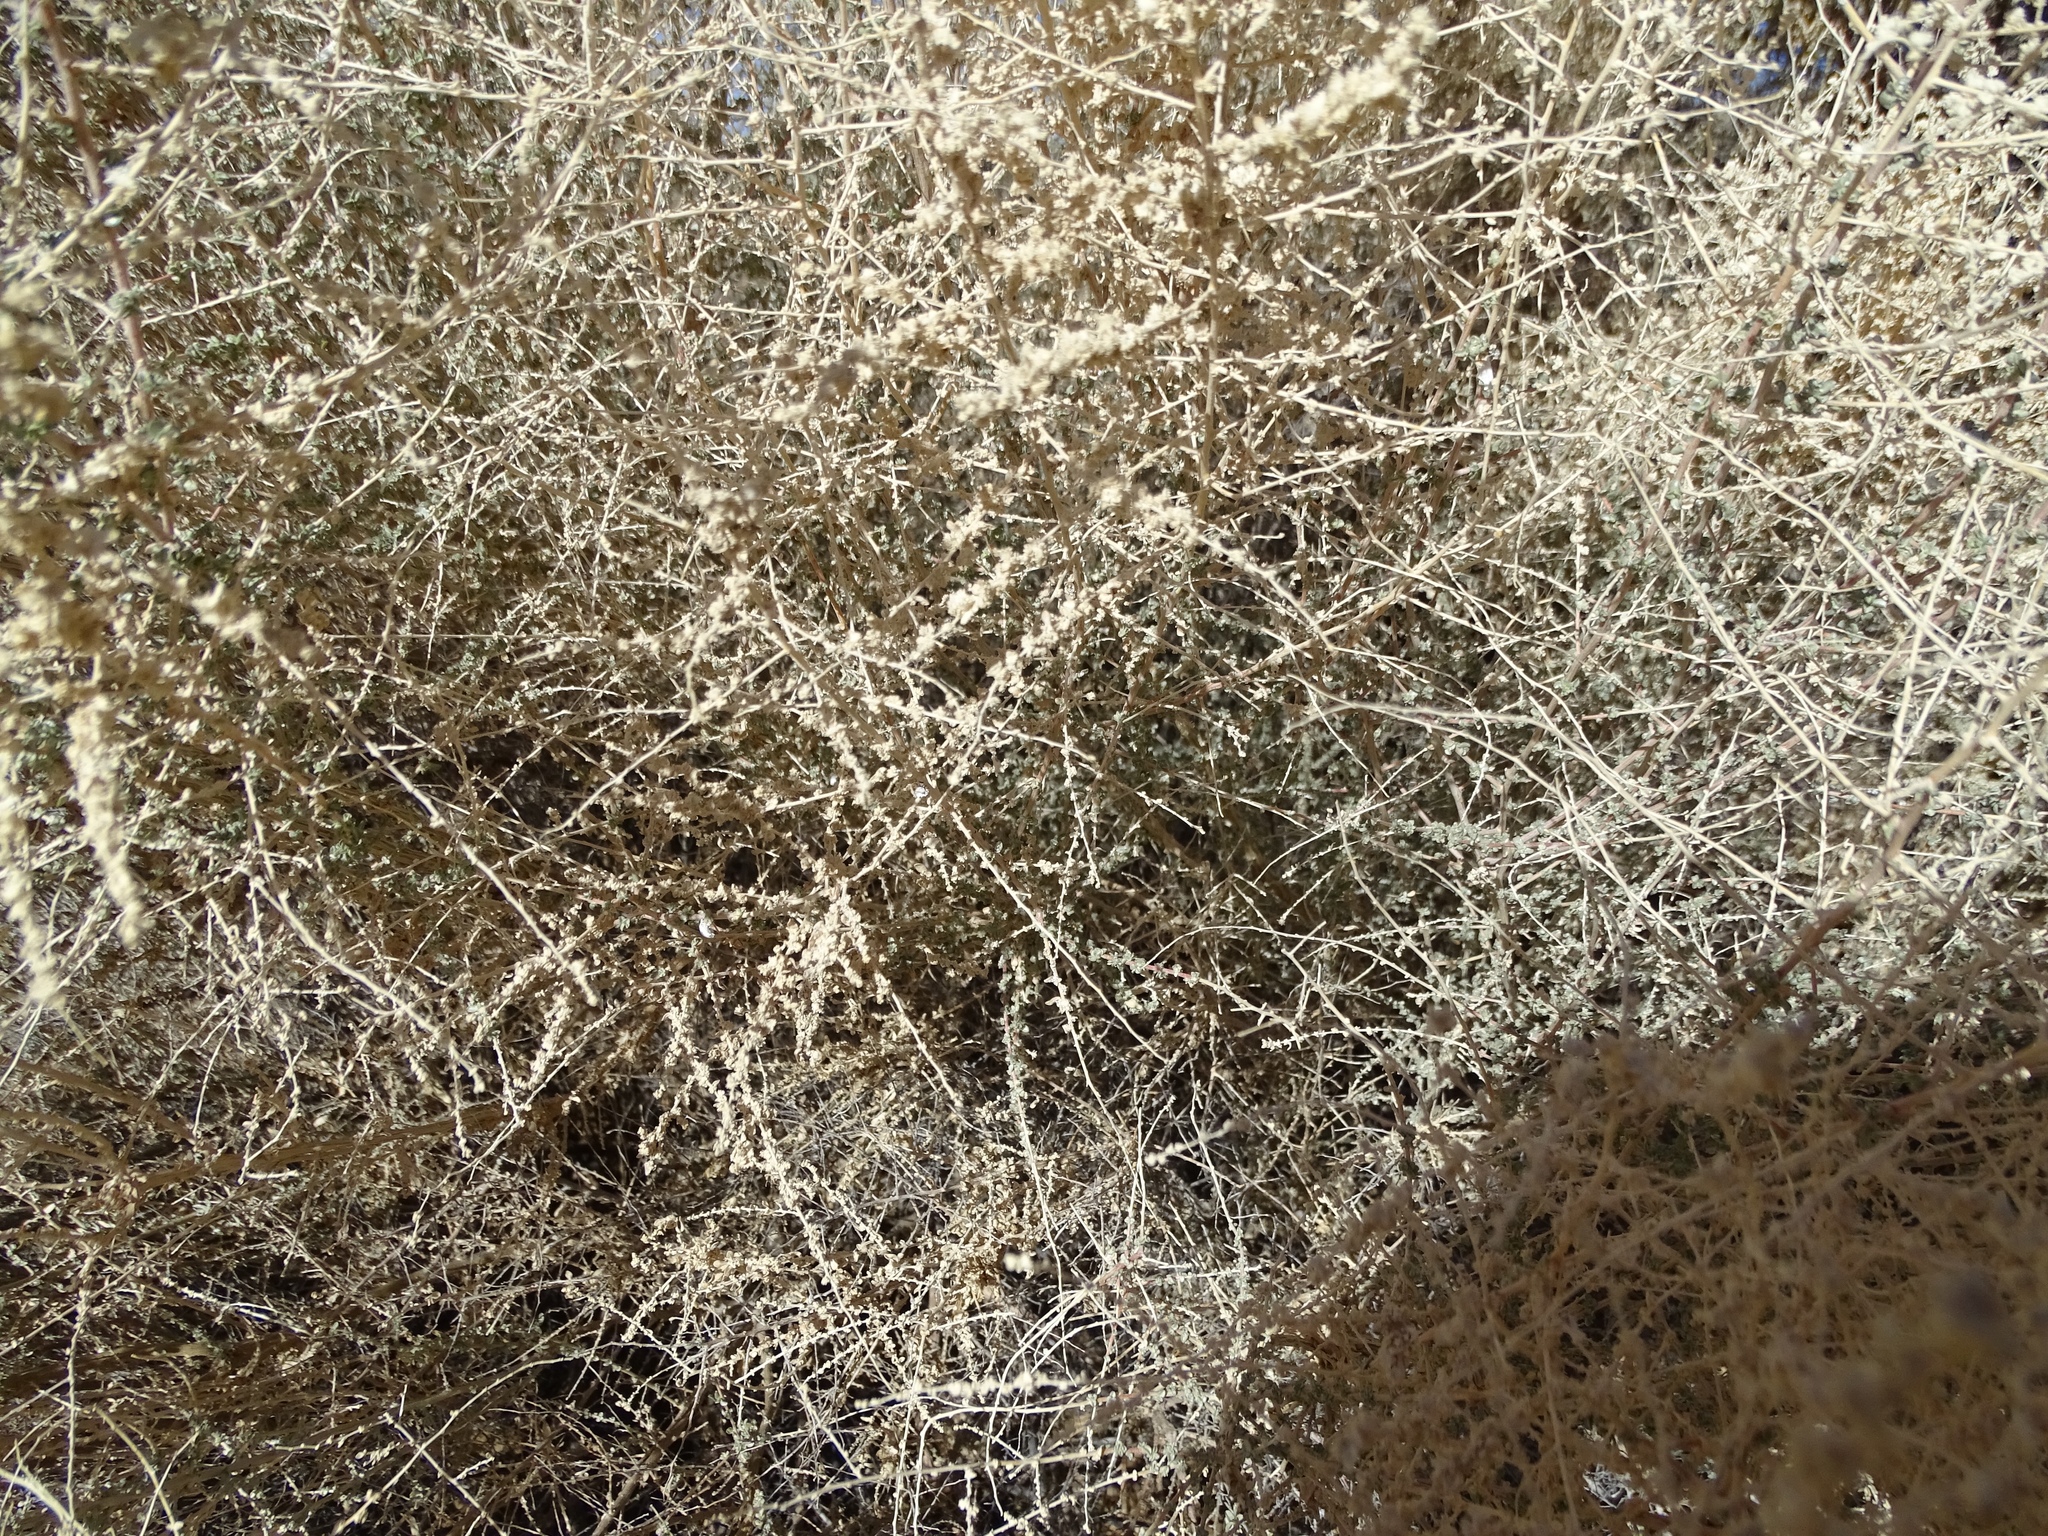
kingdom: Plantae
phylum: Tracheophyta
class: Magnoliopsida
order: Caryophyllales
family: Amaranthaceae
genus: Atriplex
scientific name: Atriplex polycarpa
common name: Desert saltbush
